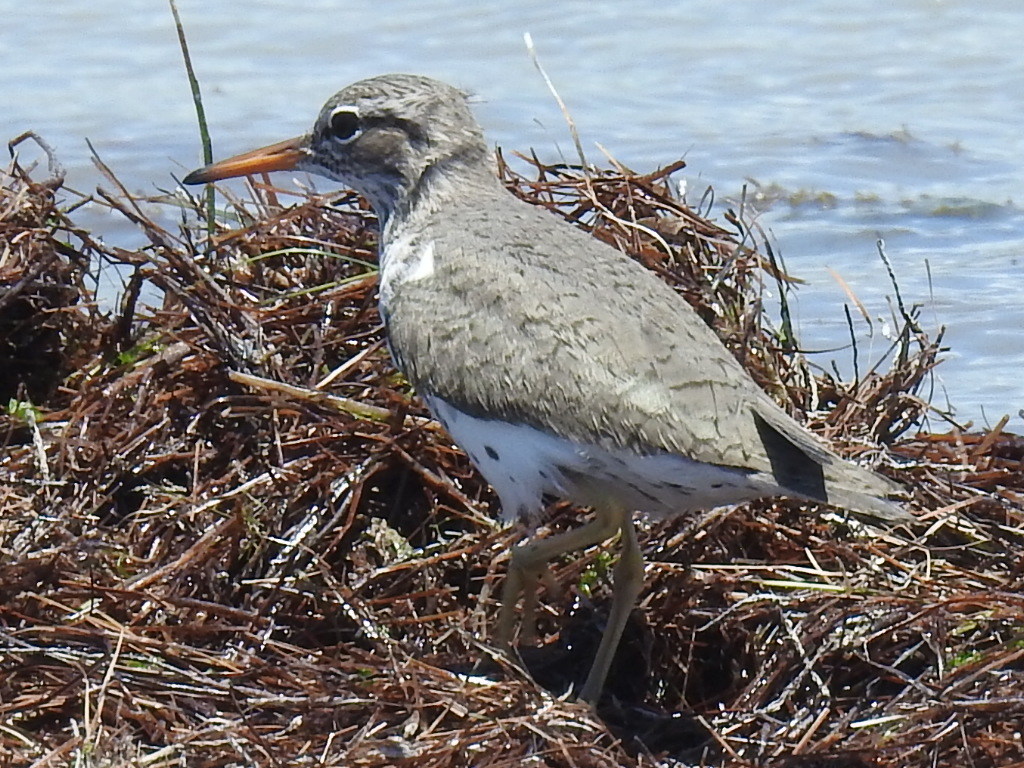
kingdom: Animalia
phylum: Chordata
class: Aves
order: Charadriiformes
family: Scolopacidae
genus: Actitis
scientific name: Actitis macularius
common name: Spotted sandpiper
